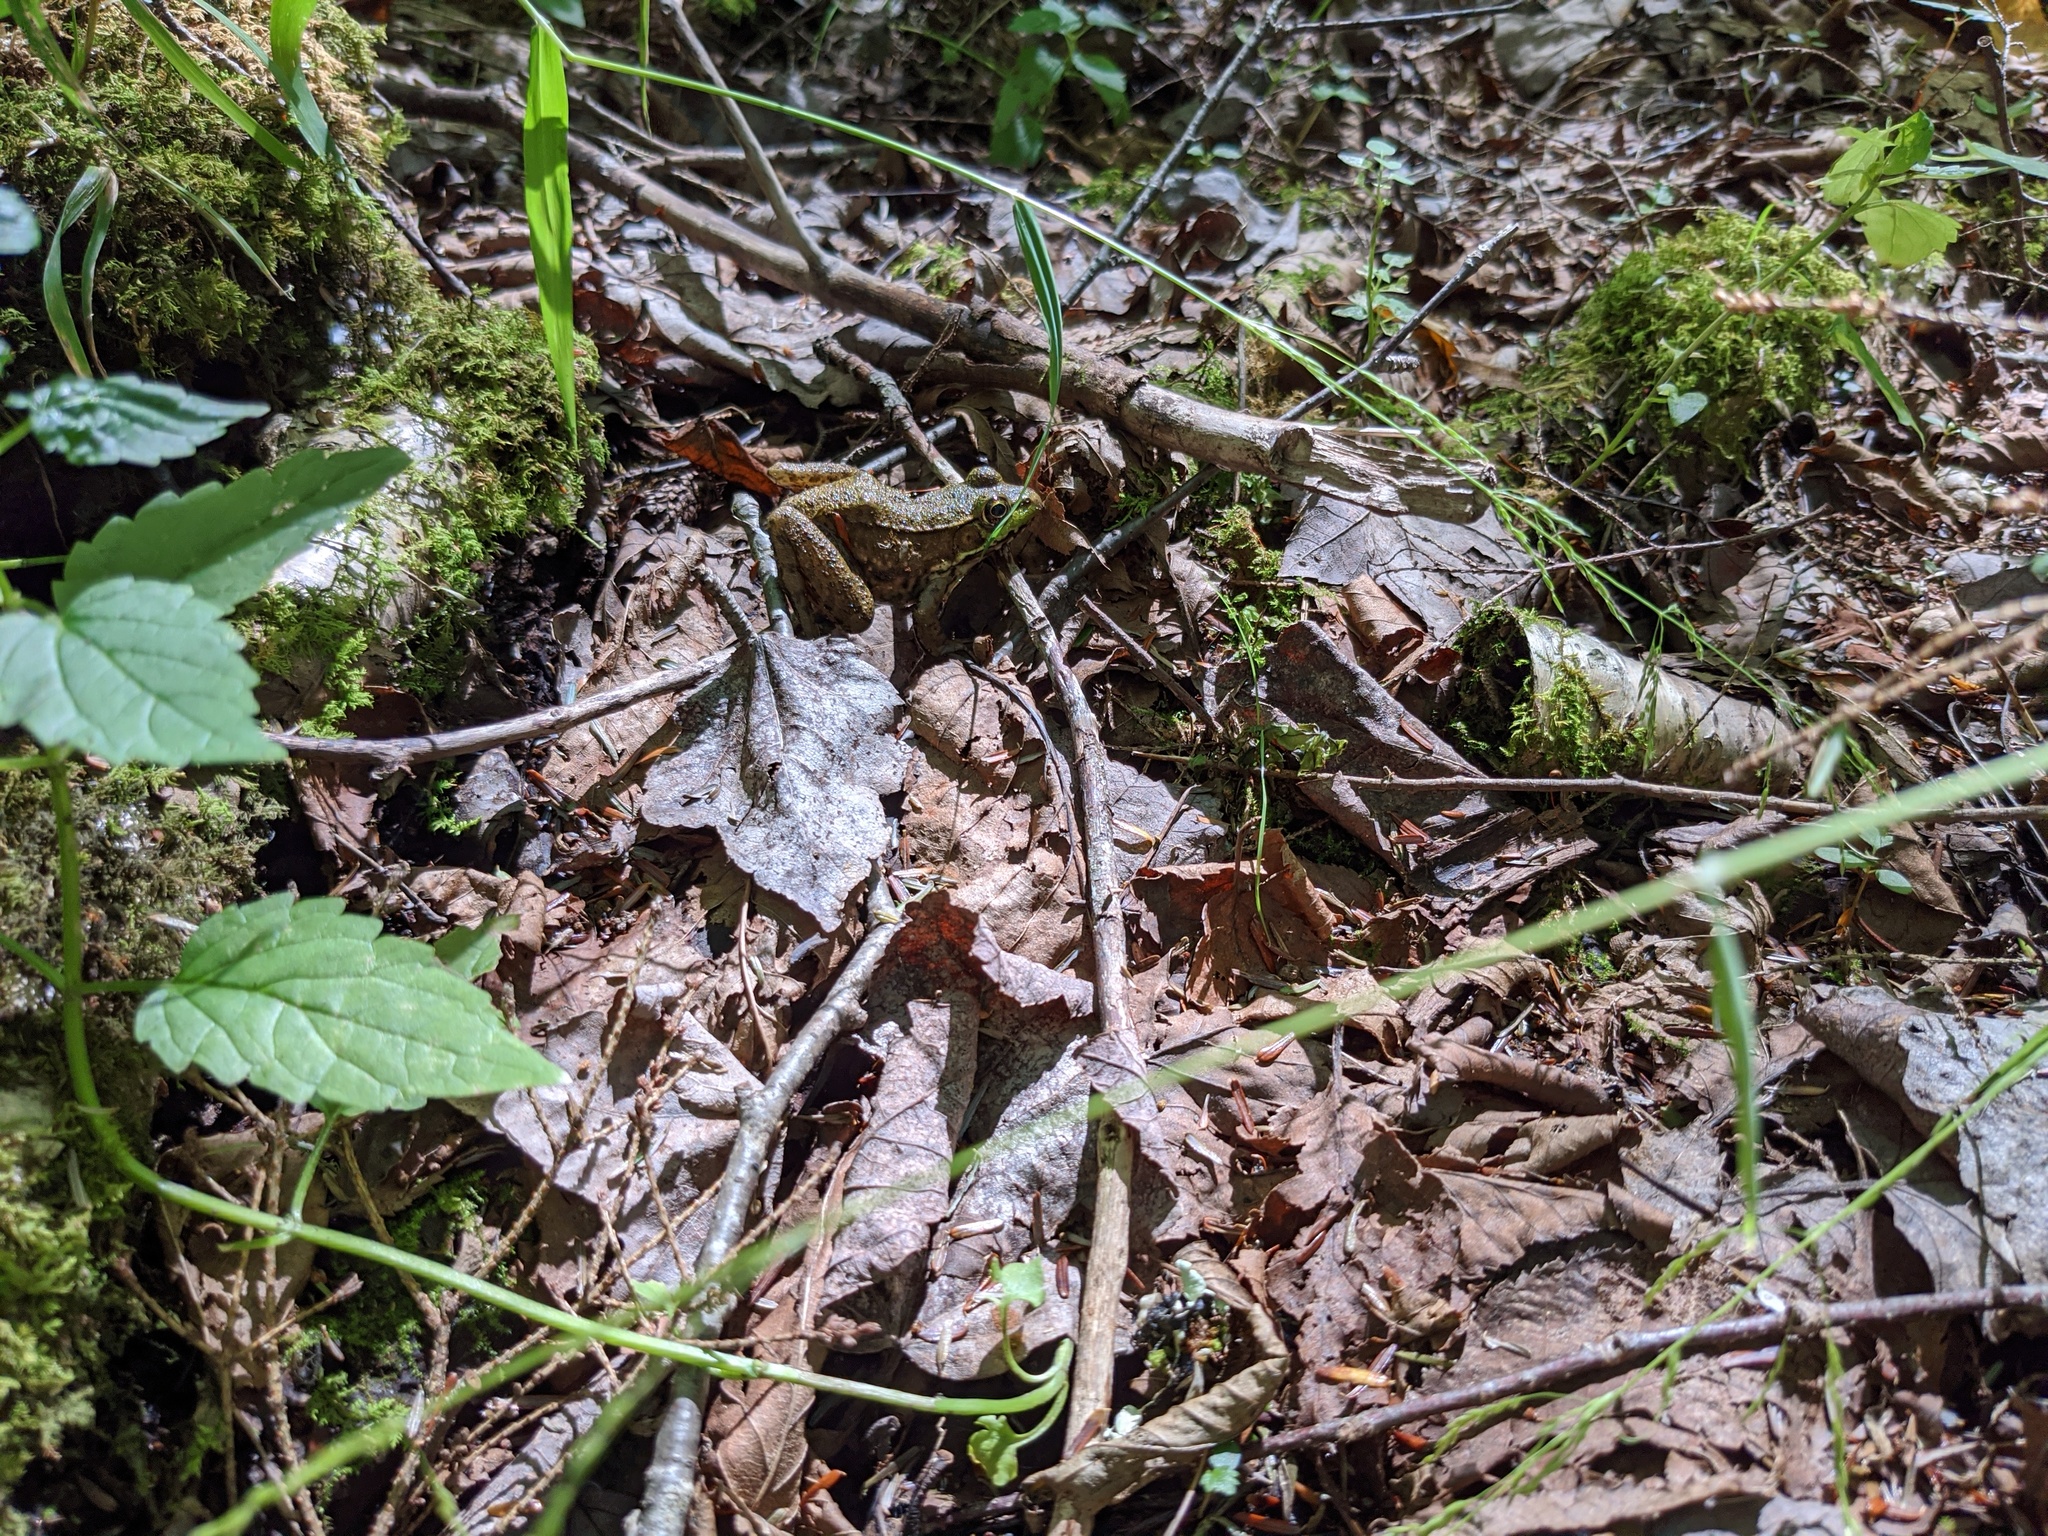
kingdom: Animalia
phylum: Chordata
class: Amphibia
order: Anura
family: Ranidae
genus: Lithobates
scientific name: Lithobates clamitans
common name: Green frog
